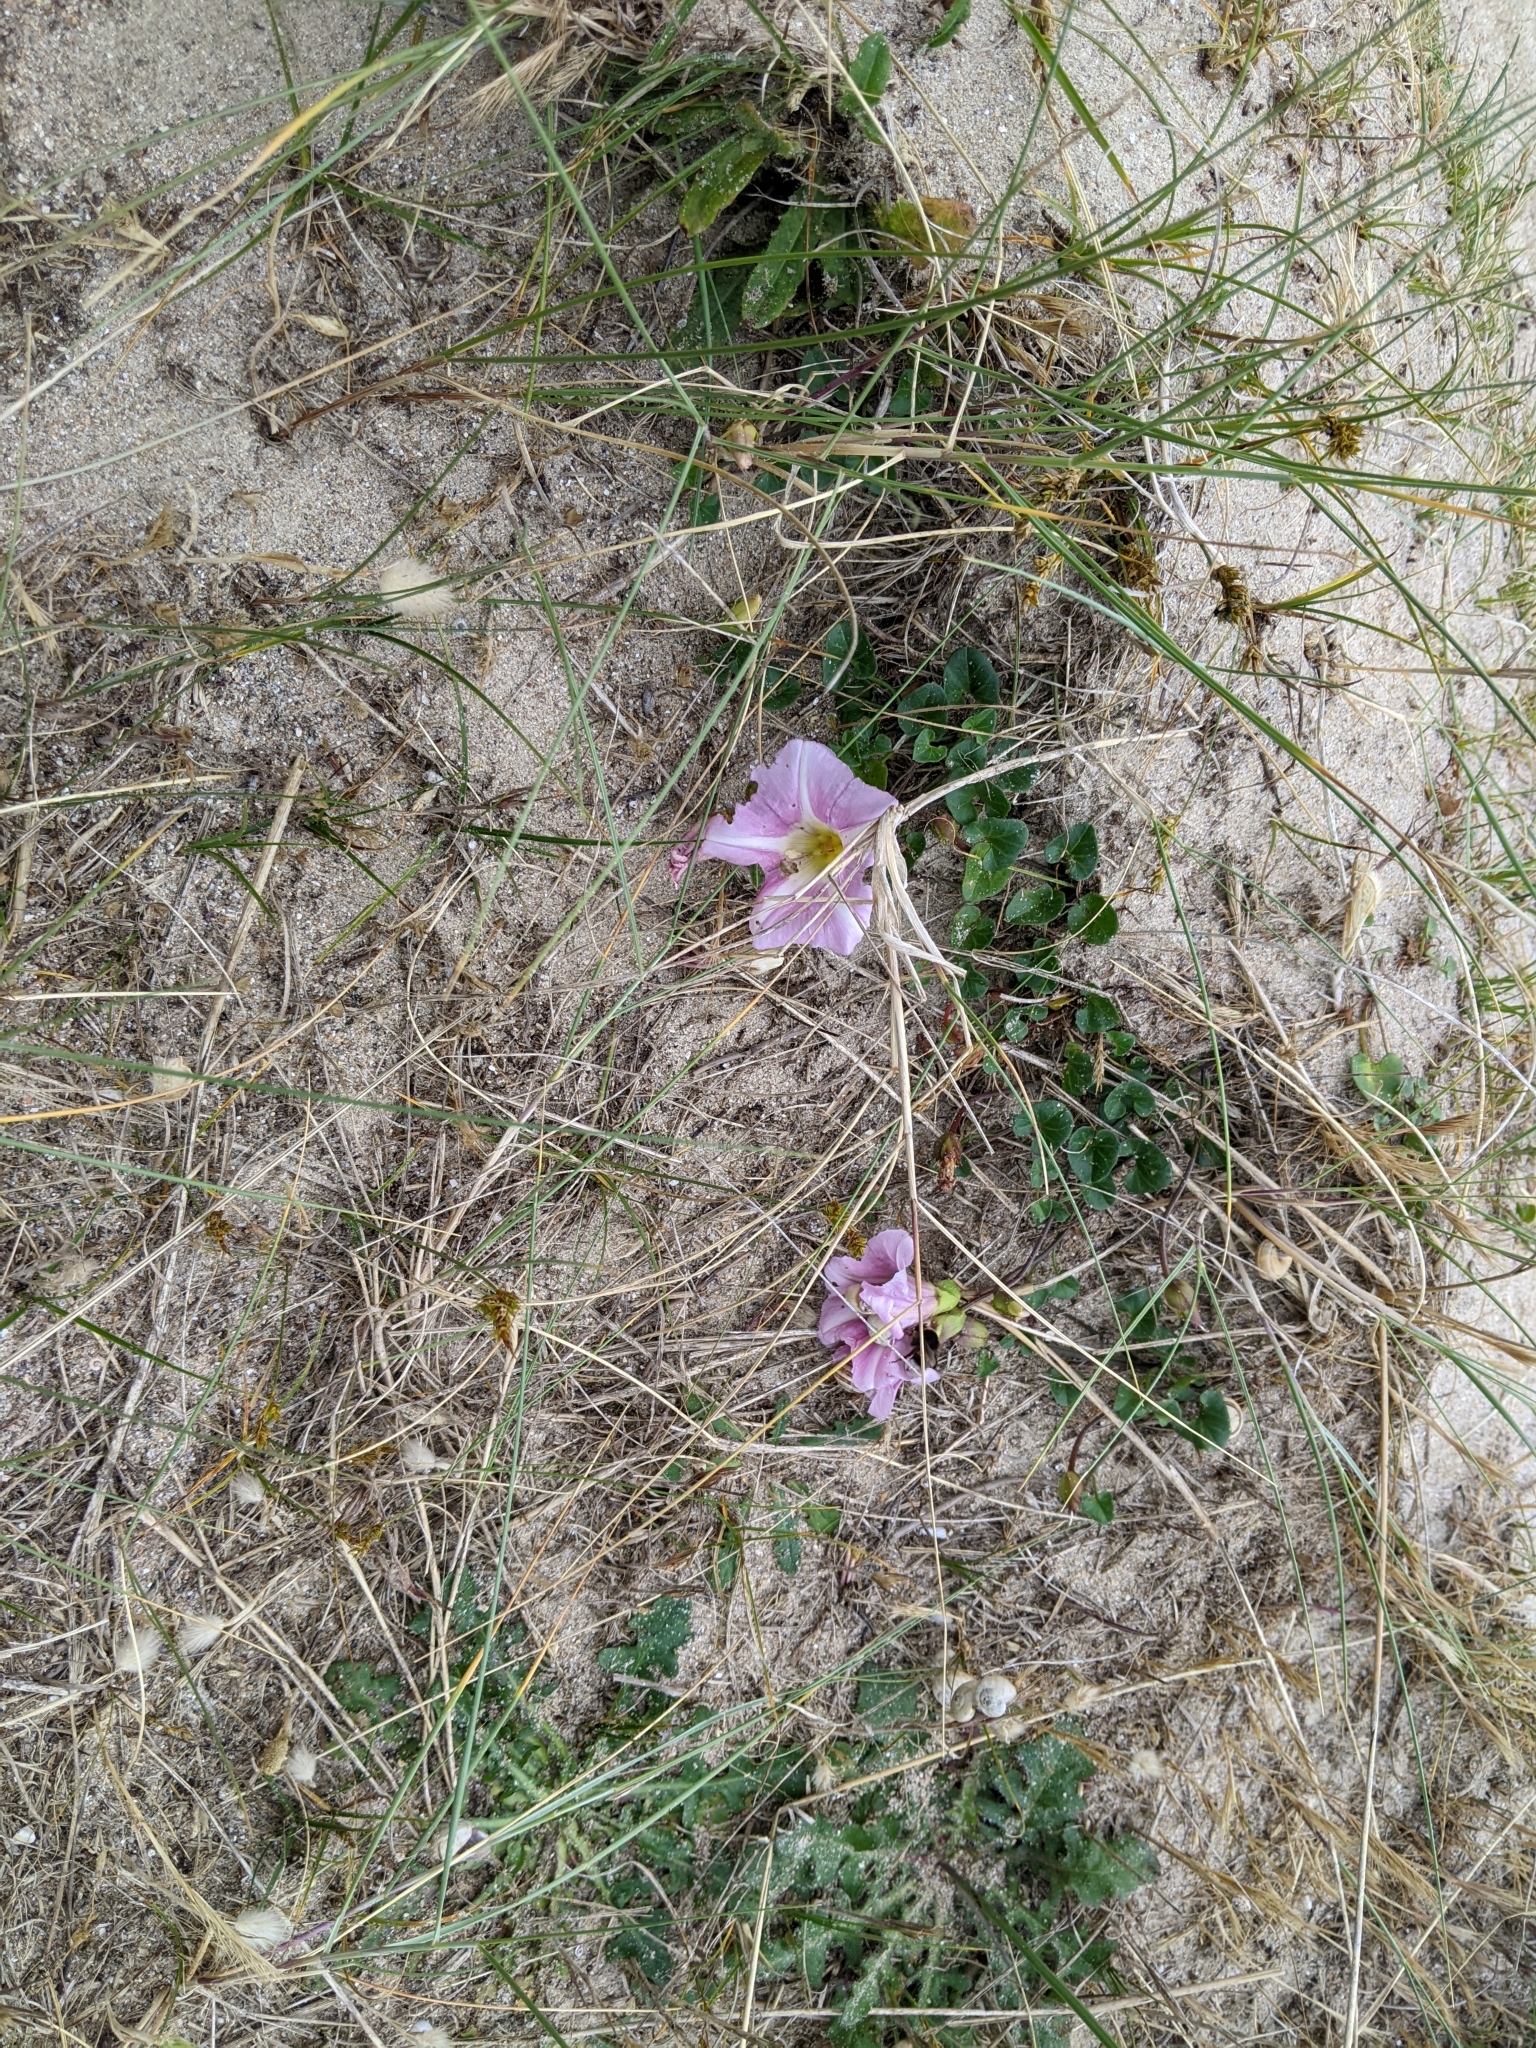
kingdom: Plantae
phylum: Tracheophyta
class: Magnoliopsida
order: Solanales
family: Convolvulaceae
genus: Calystegia
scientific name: Calystegia soldanella
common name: Sea bindweed
